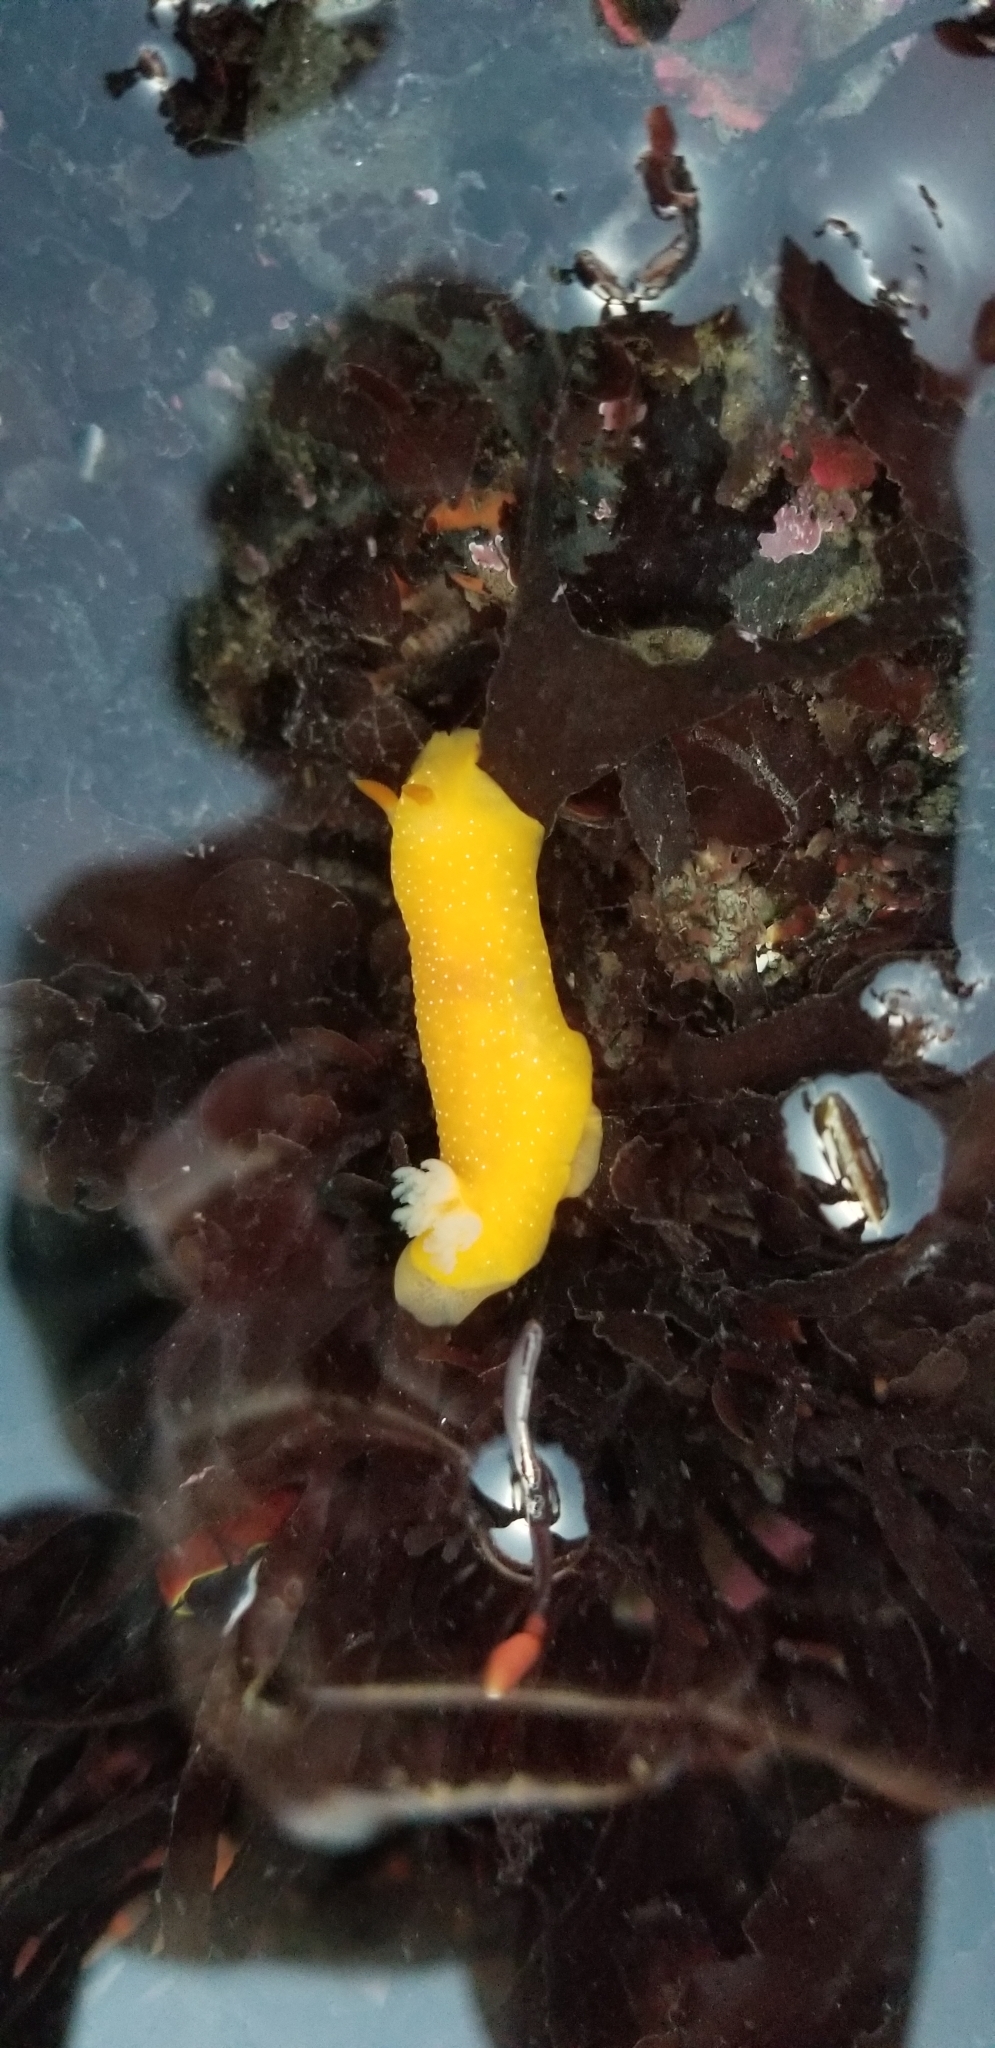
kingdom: Animalia
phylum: Mollusca
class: Gastropoda
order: Nudibranchia
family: Dendrodorididae
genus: Doriopsilla
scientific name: Doriopsilla fulva
